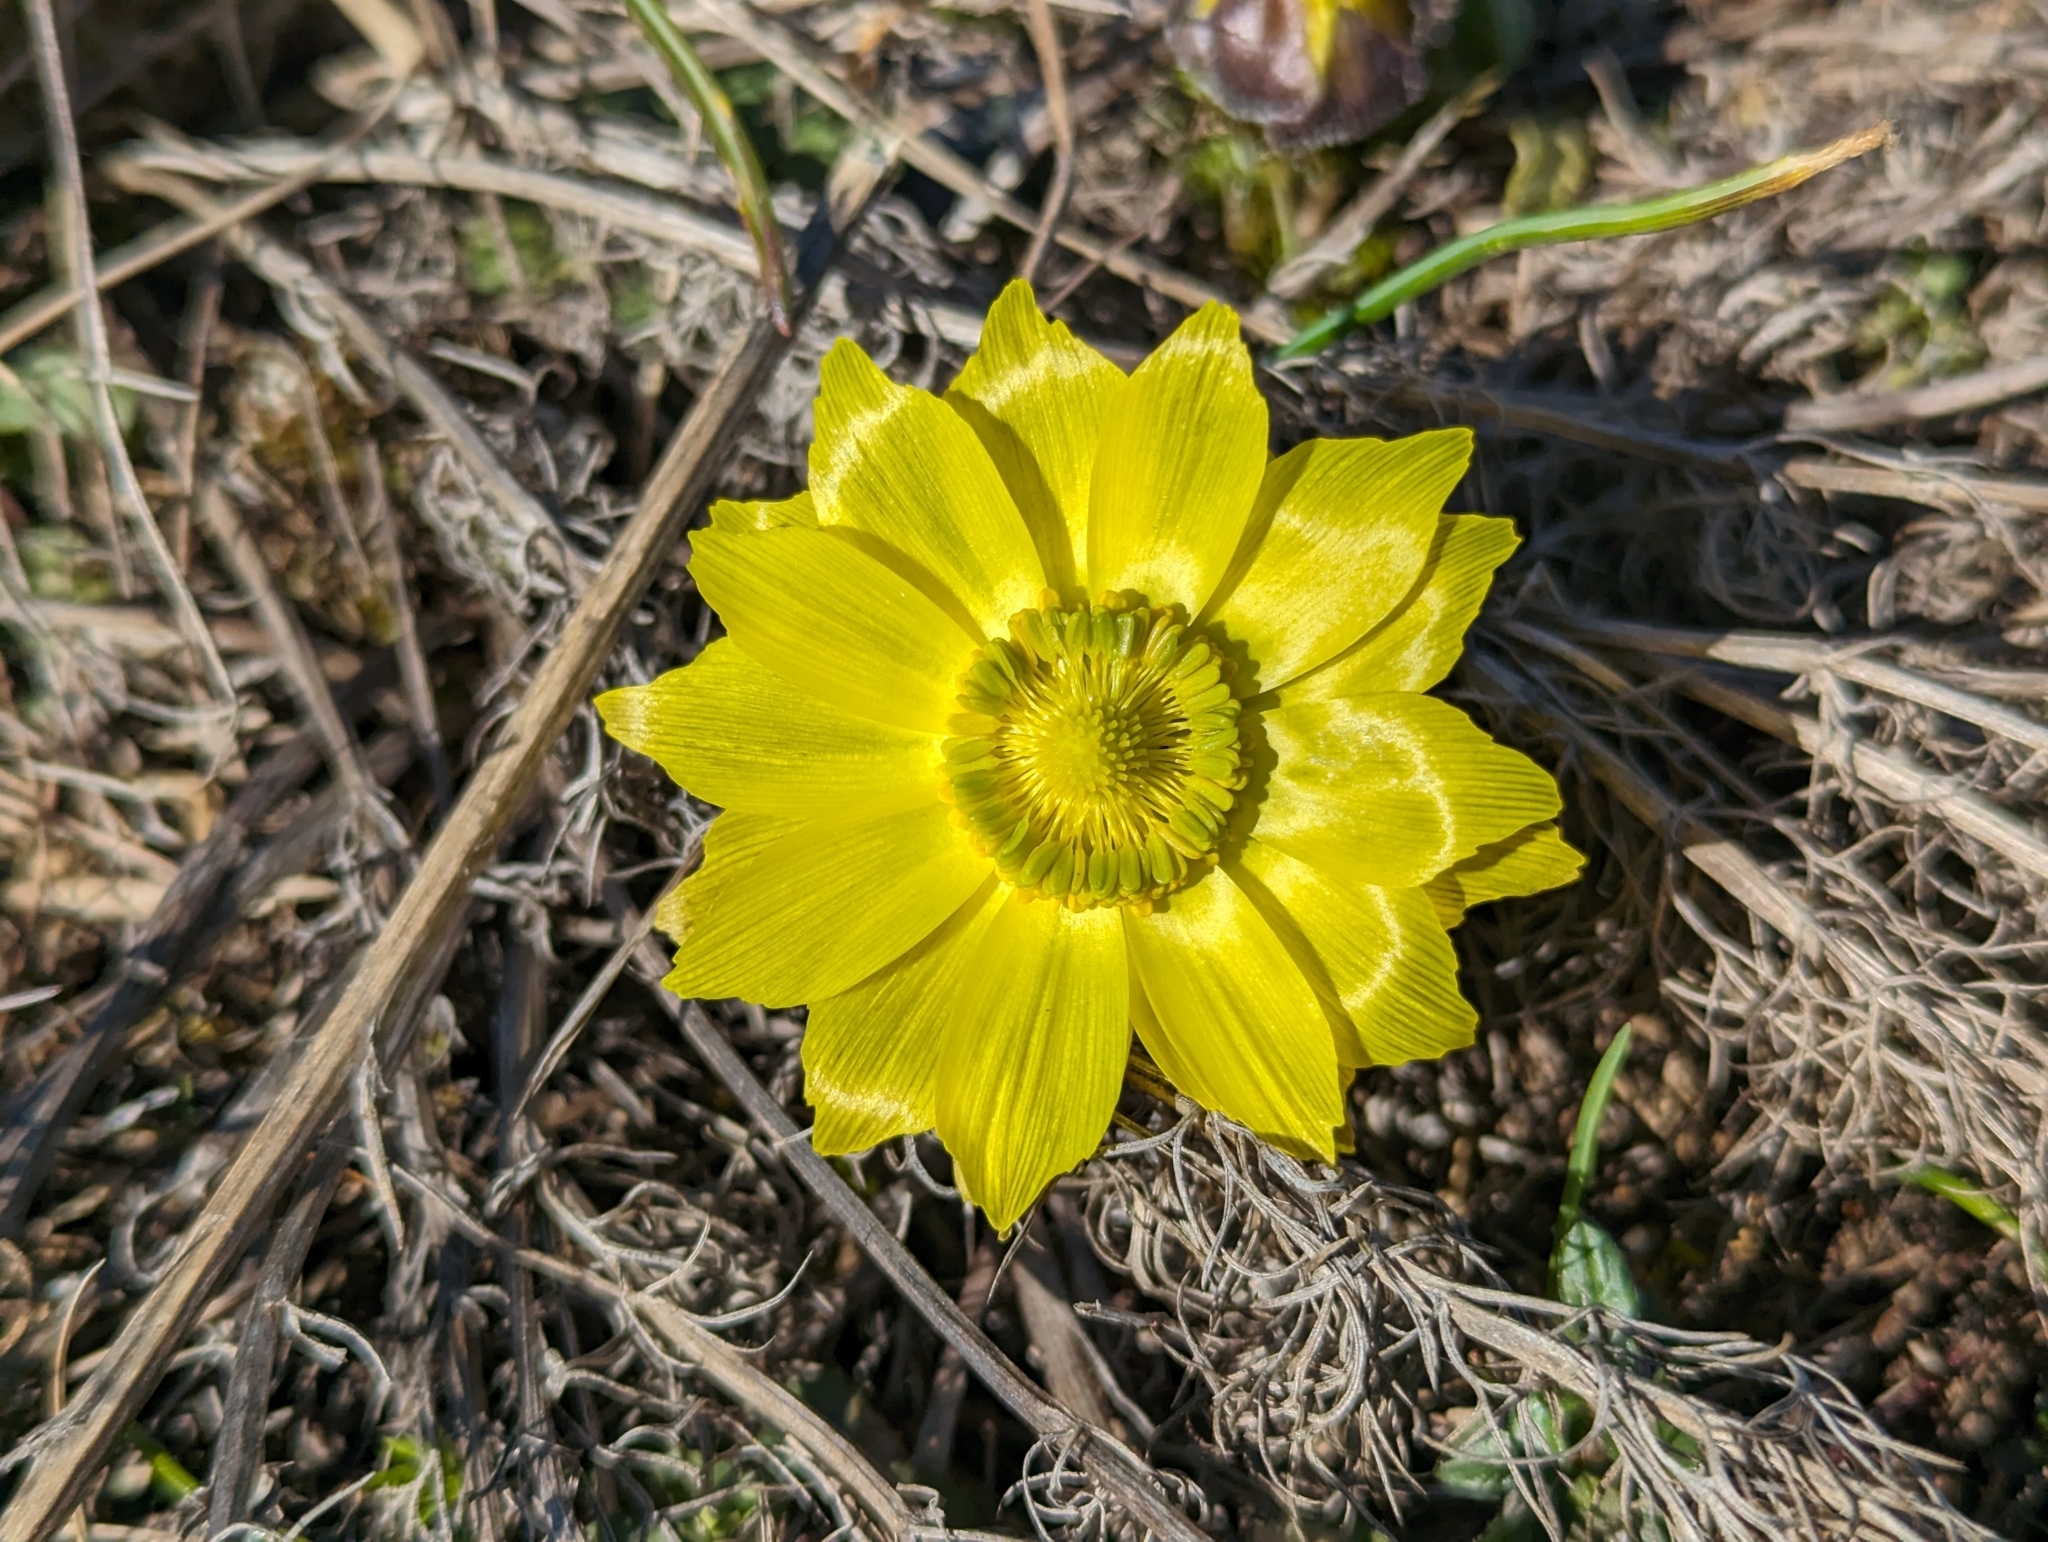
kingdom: Plantae
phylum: Tracheophyta
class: Magnoliopsida
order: Ranunculales
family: Ranunculaceae
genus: Adonis
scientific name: Adonis vernalis
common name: Yellow pheasants-eye
